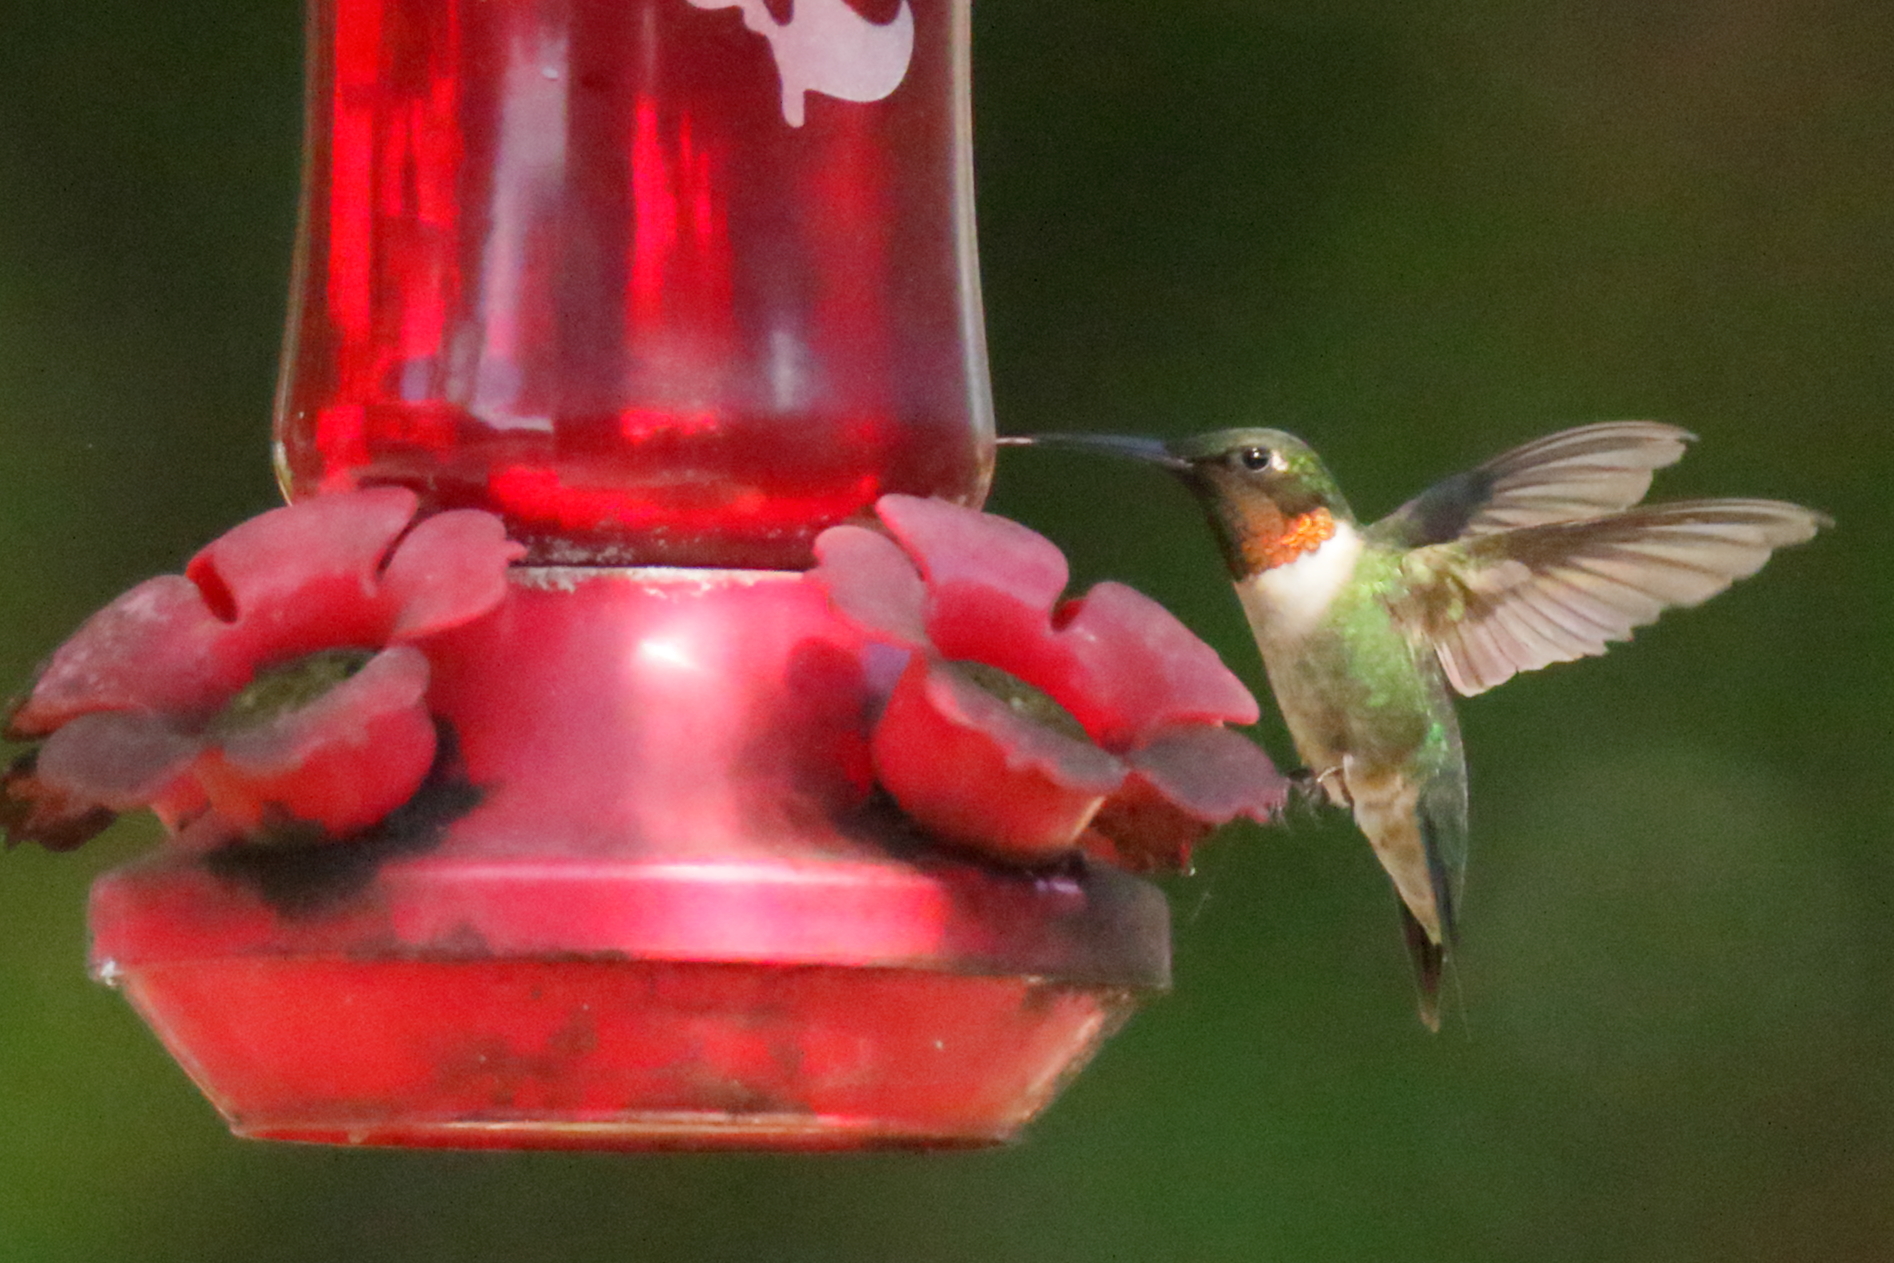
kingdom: Animalia
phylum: Chordata
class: Aves
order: Apodiformes
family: Trochilidae
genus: Archilochus
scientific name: Archilochus colubris
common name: Ruby-throated hummingbird
